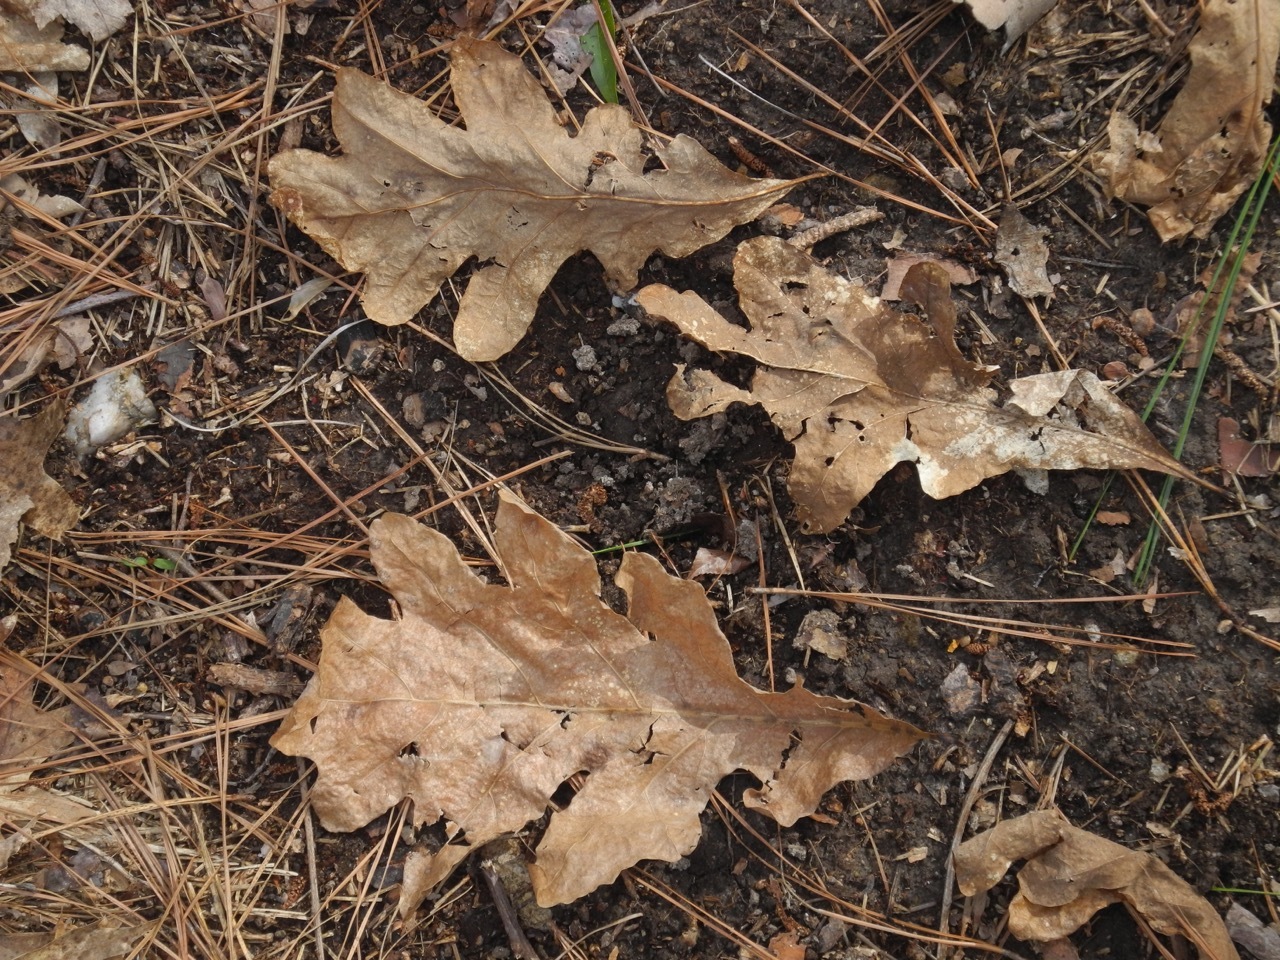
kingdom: Plantae
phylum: Tracheophyta
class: Magnoliopsida
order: Fagales
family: Fagaceae
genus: Quercus
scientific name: Quercus alba
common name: White oak
